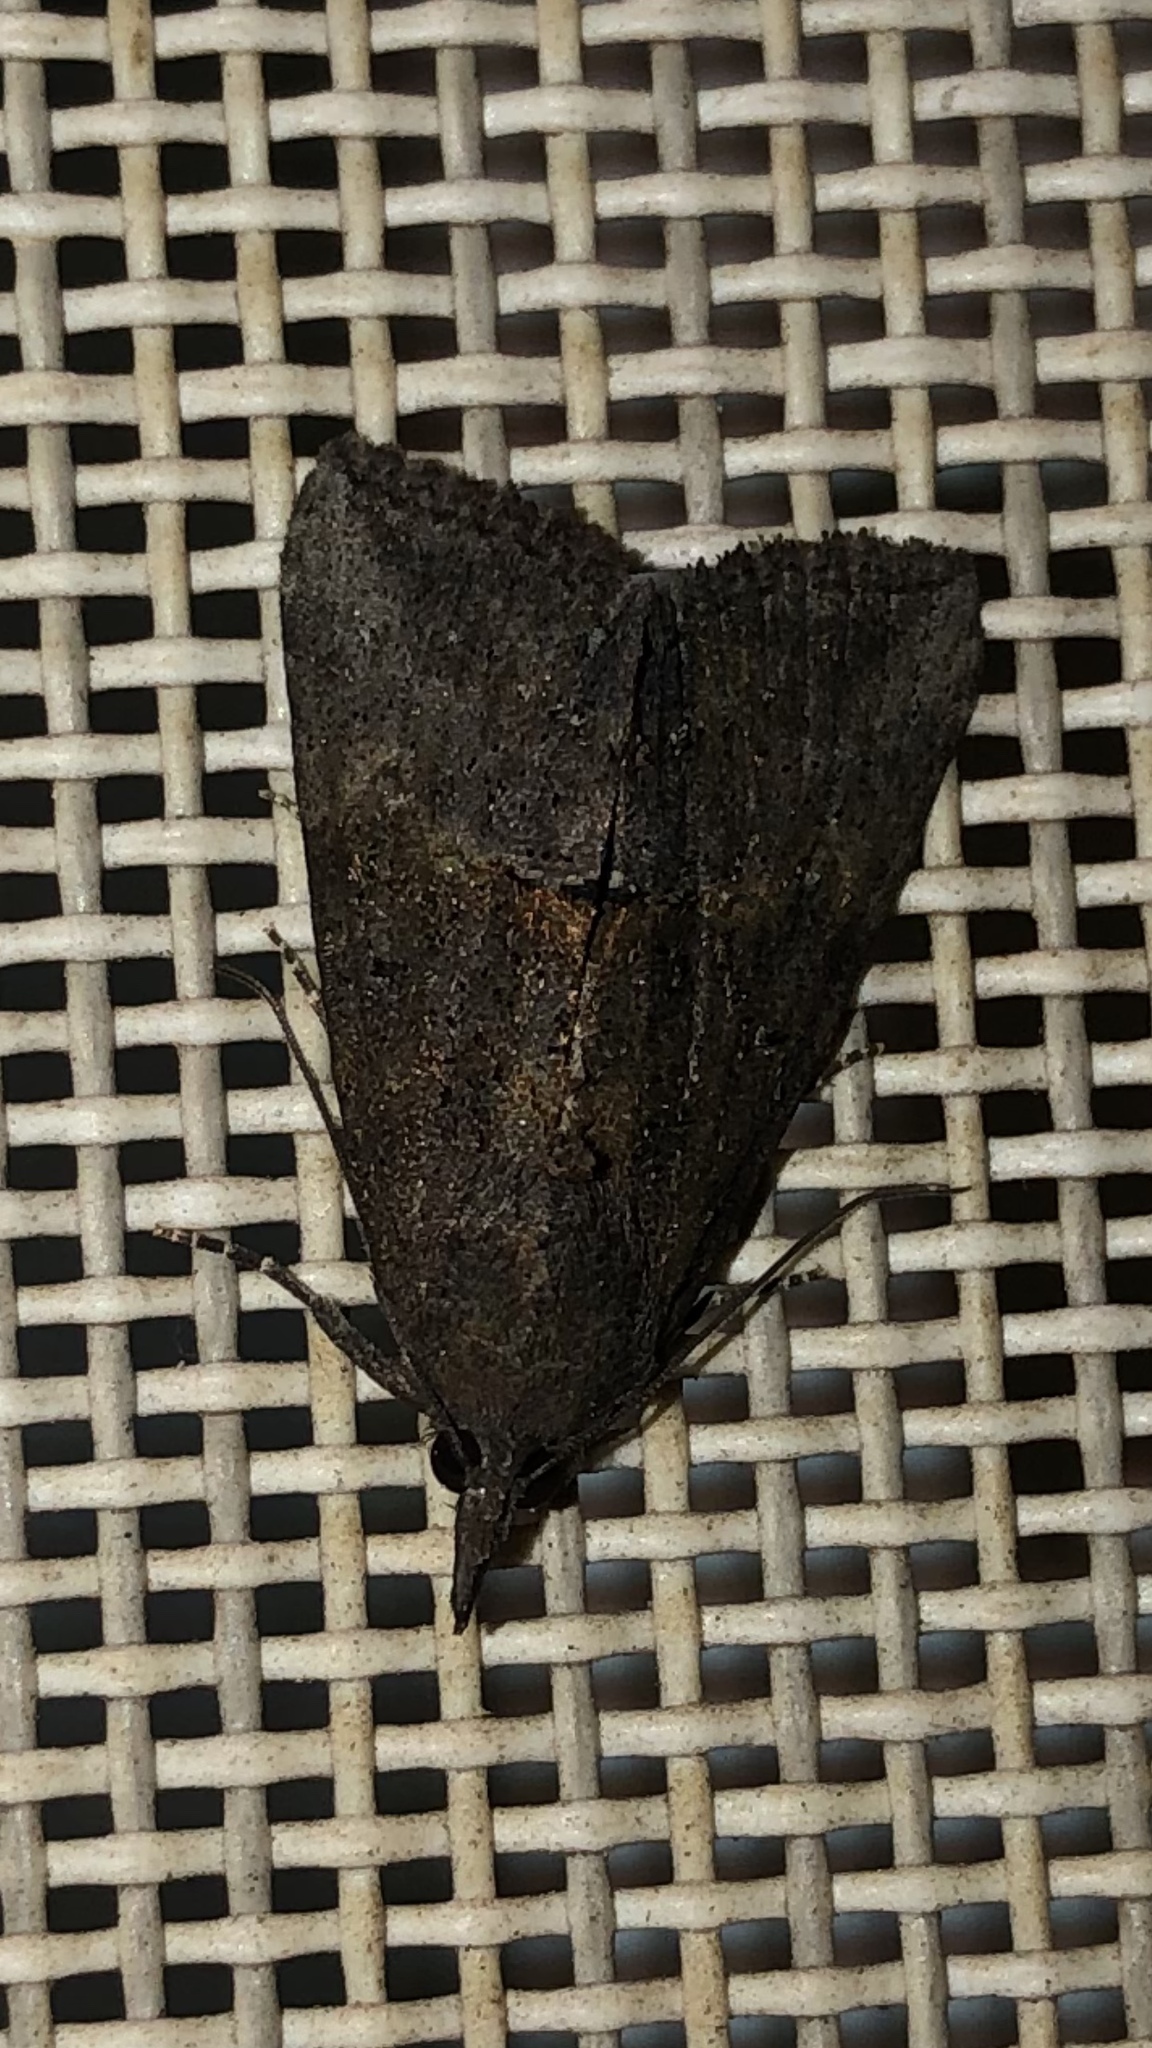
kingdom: Animalia
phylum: Arthropoda
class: Insecta
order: Lepidoptera
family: Erebidae
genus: Hypena
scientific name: Hypena scabra
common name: Green cloverworm
